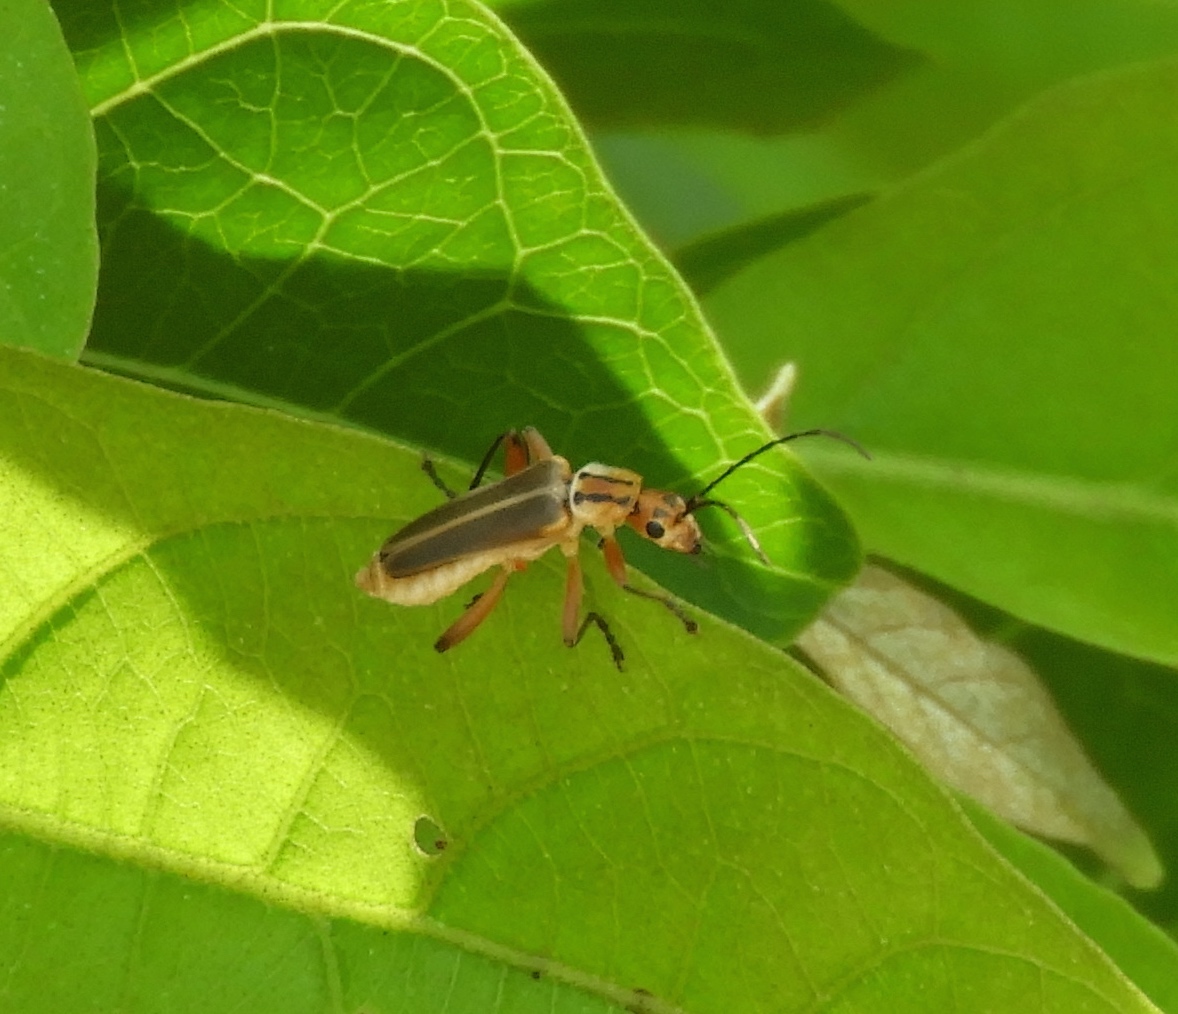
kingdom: Animalia
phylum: Arthropoda
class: Insecta
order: Coleoptera
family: Cantharidae
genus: Chauliognathus
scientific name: Chauliognathus
